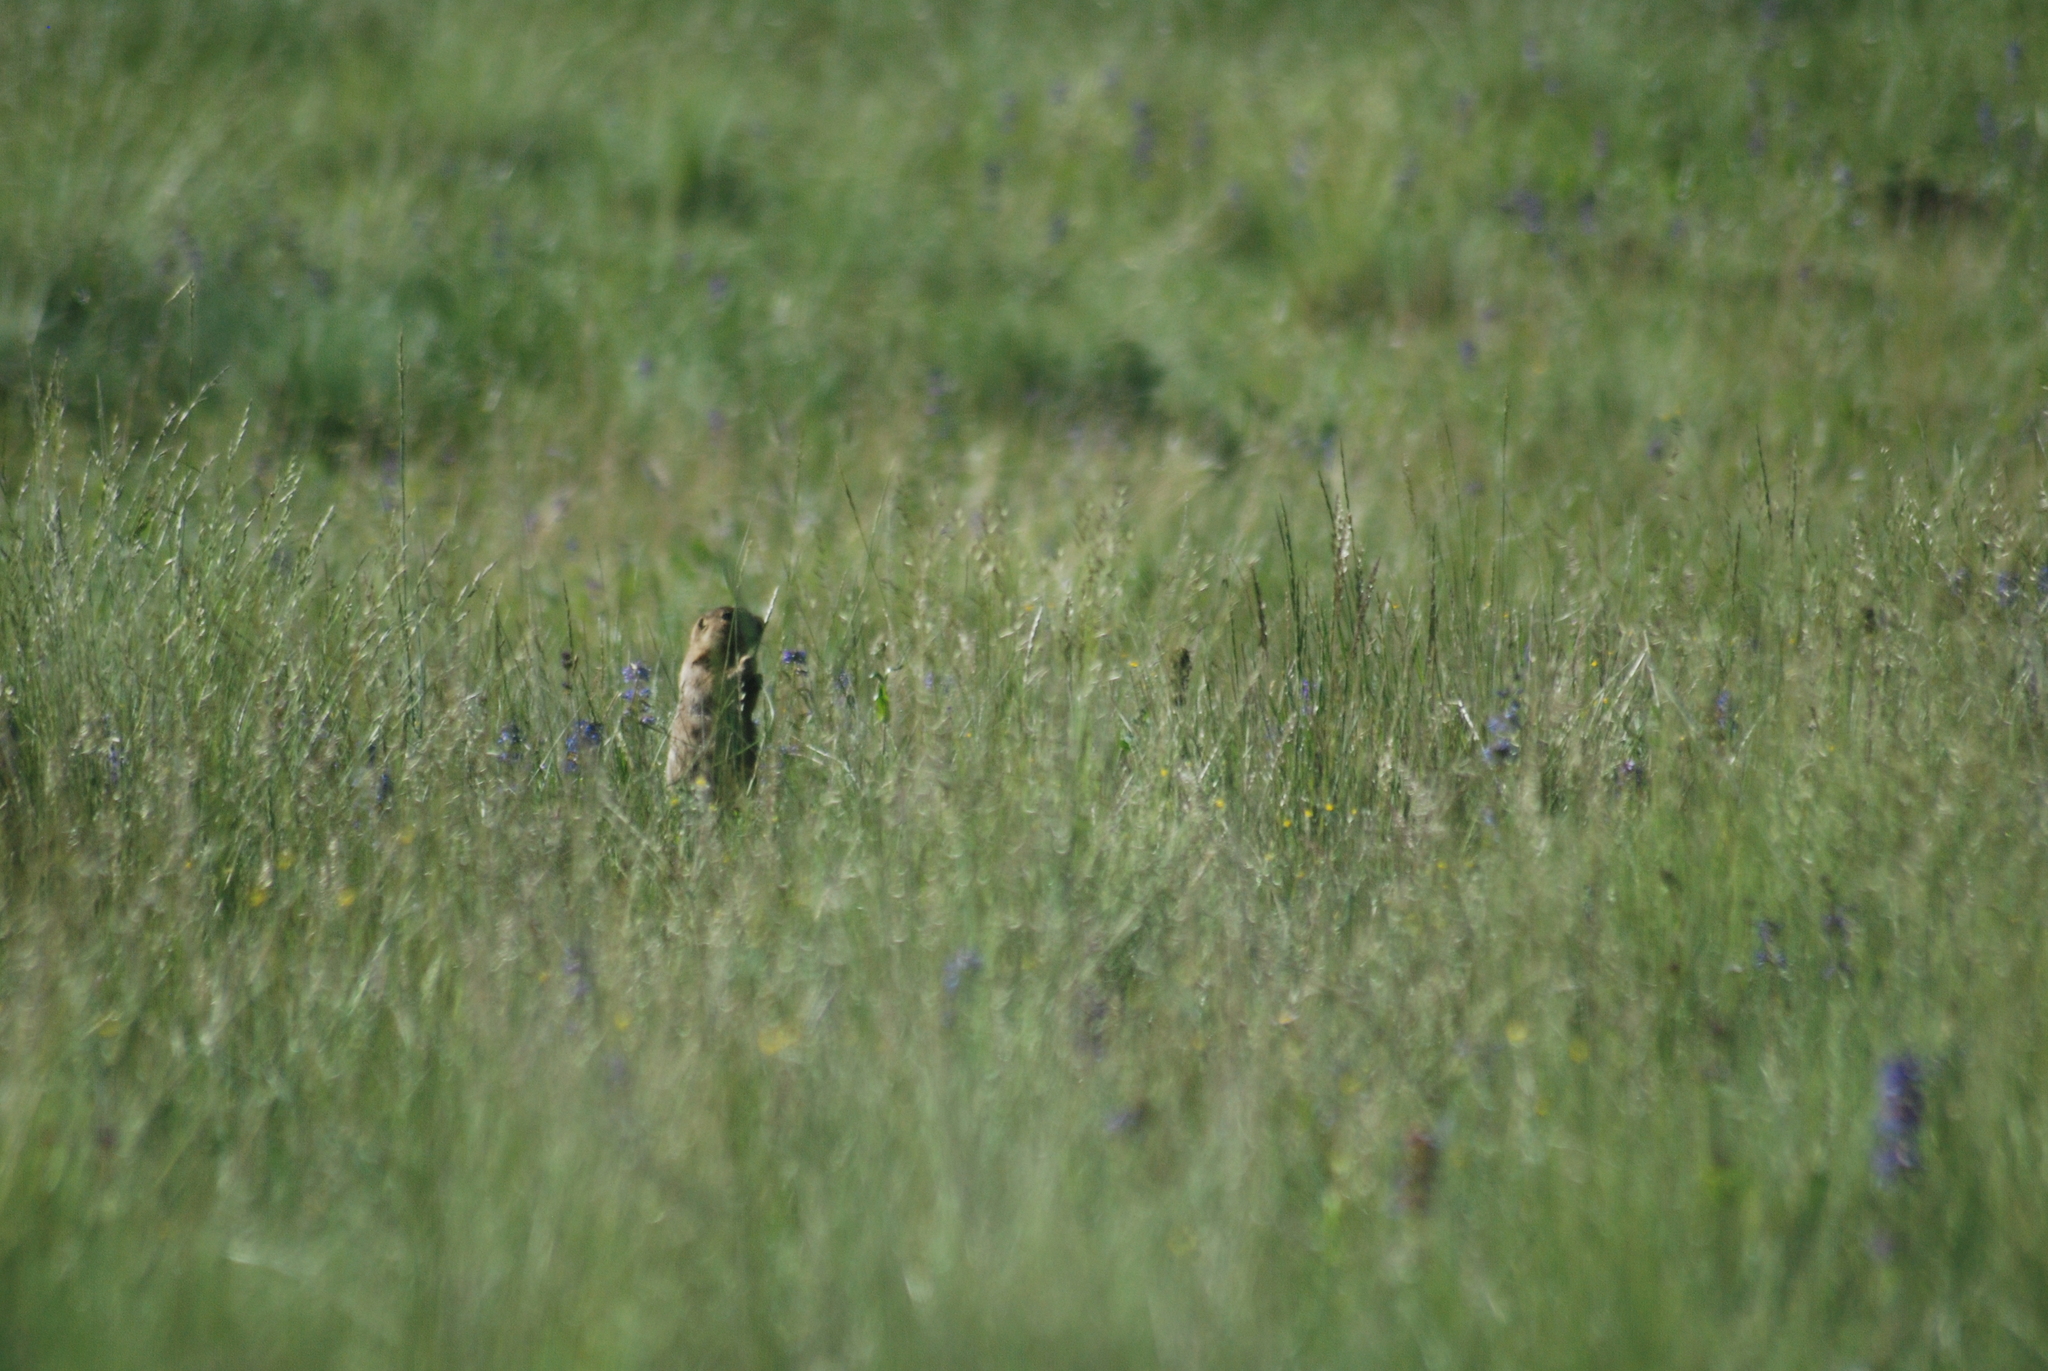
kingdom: Animalia
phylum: Chordata
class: Mammalia
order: Rodentia
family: Sciuridae
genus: Cynomys
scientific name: Cynomys gunnisoni
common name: Gunnison's prairie dog
